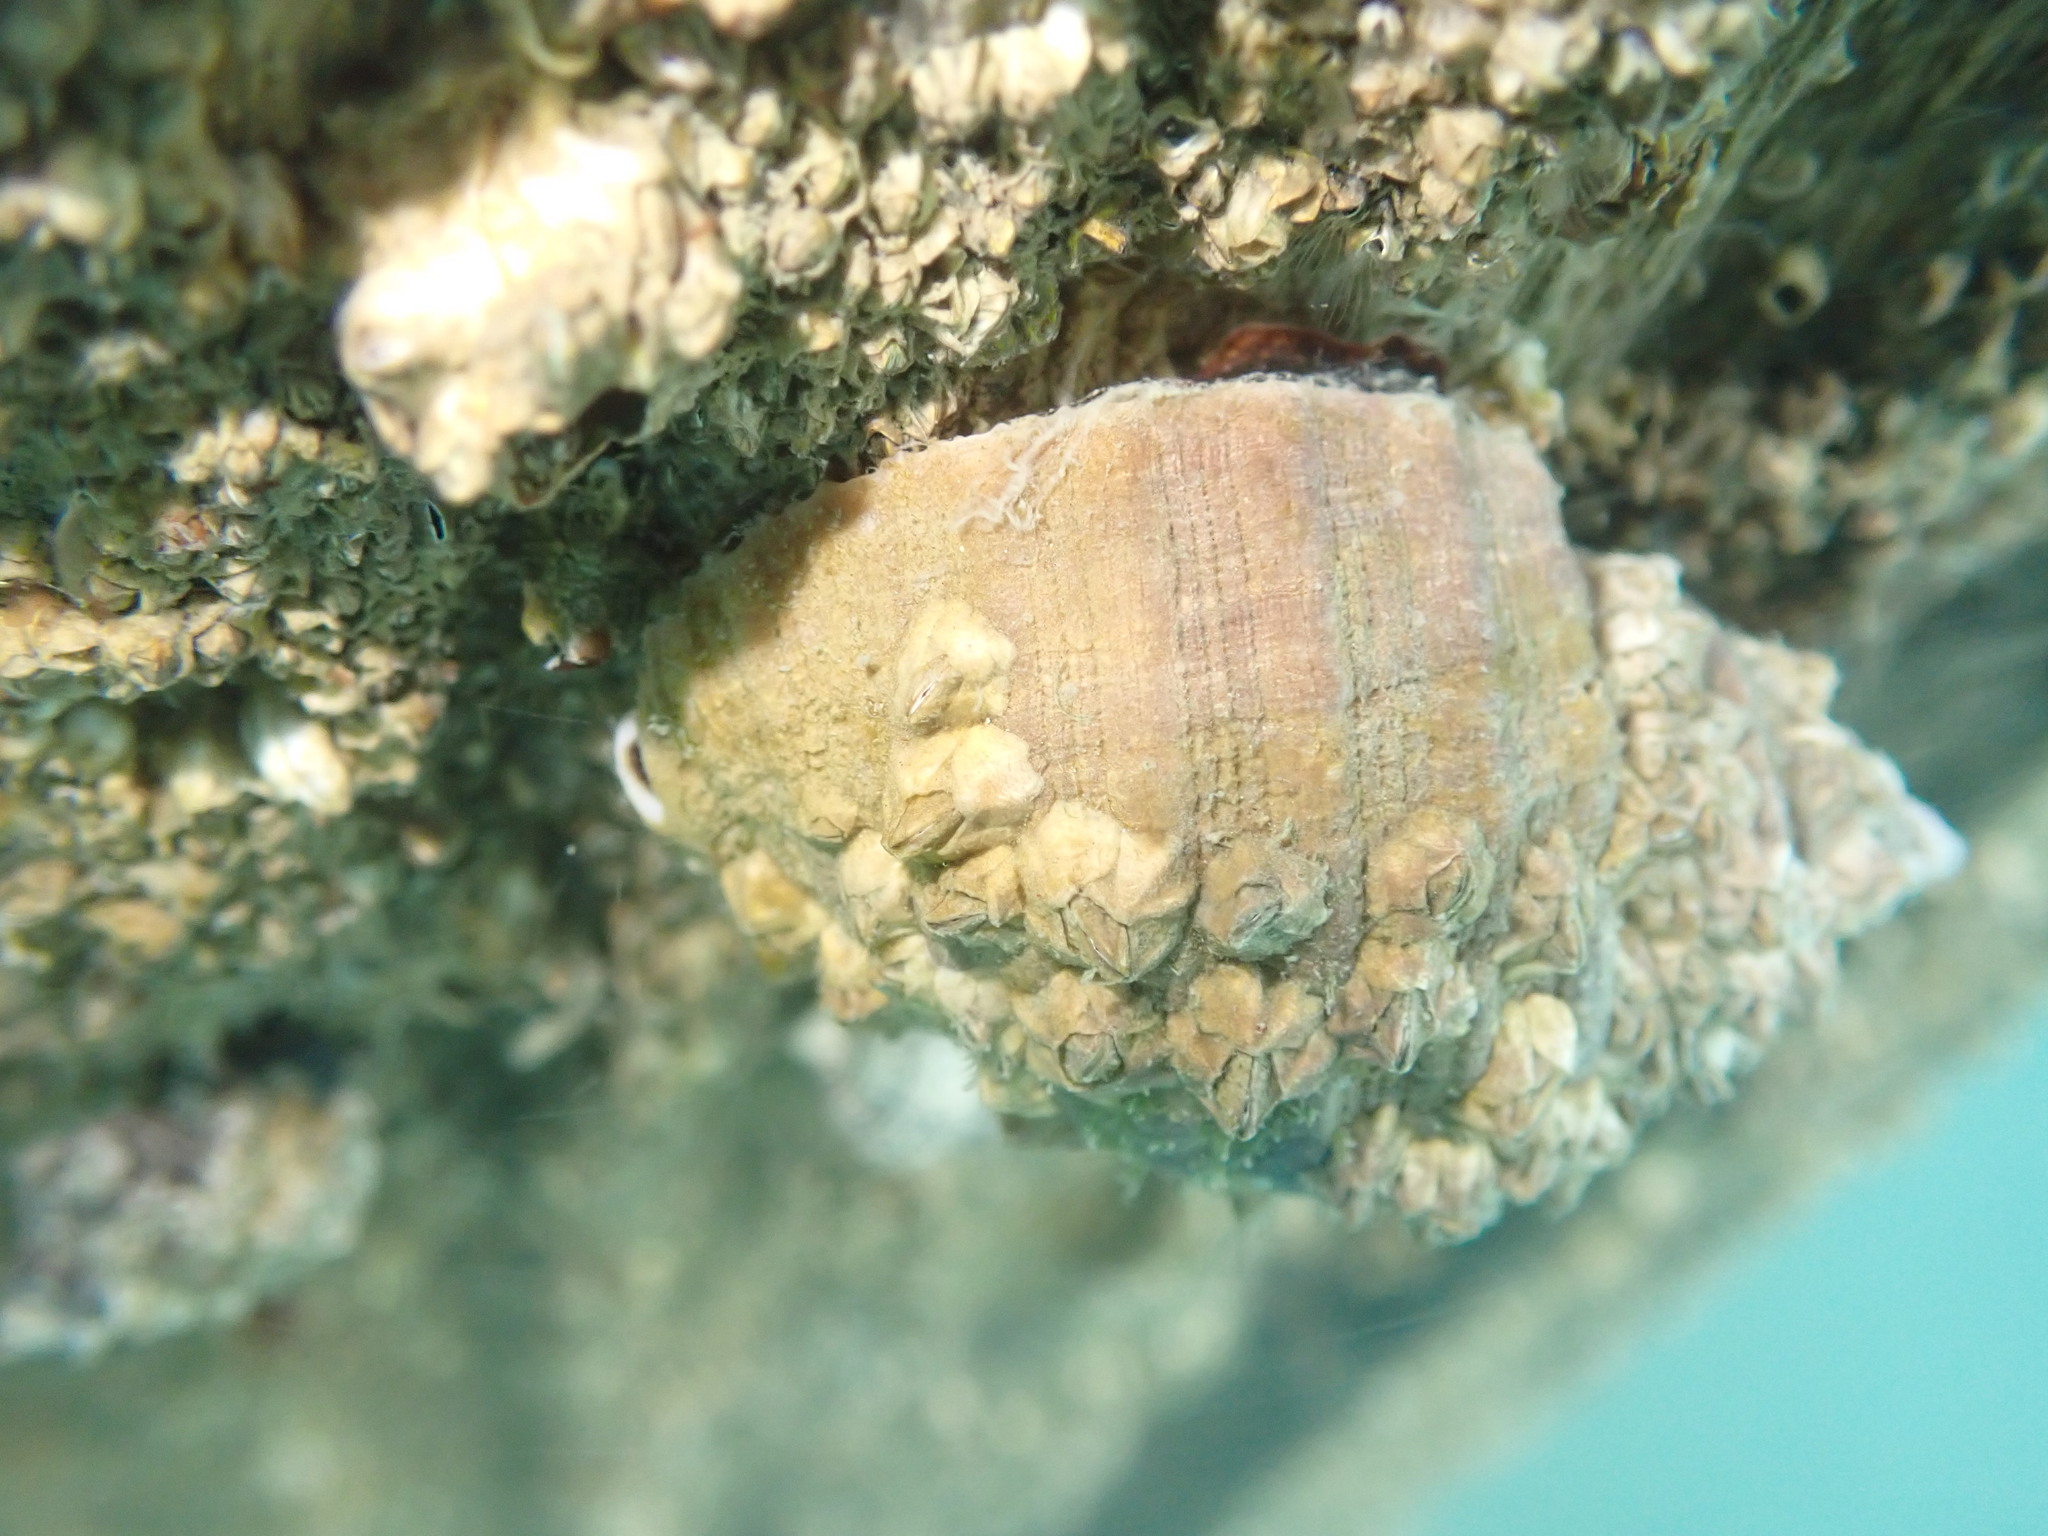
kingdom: Animalia
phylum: Mollusca
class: Gastropoda
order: Neogastropoda
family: Muricidae
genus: Dicathais
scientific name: Dicathais orbita
